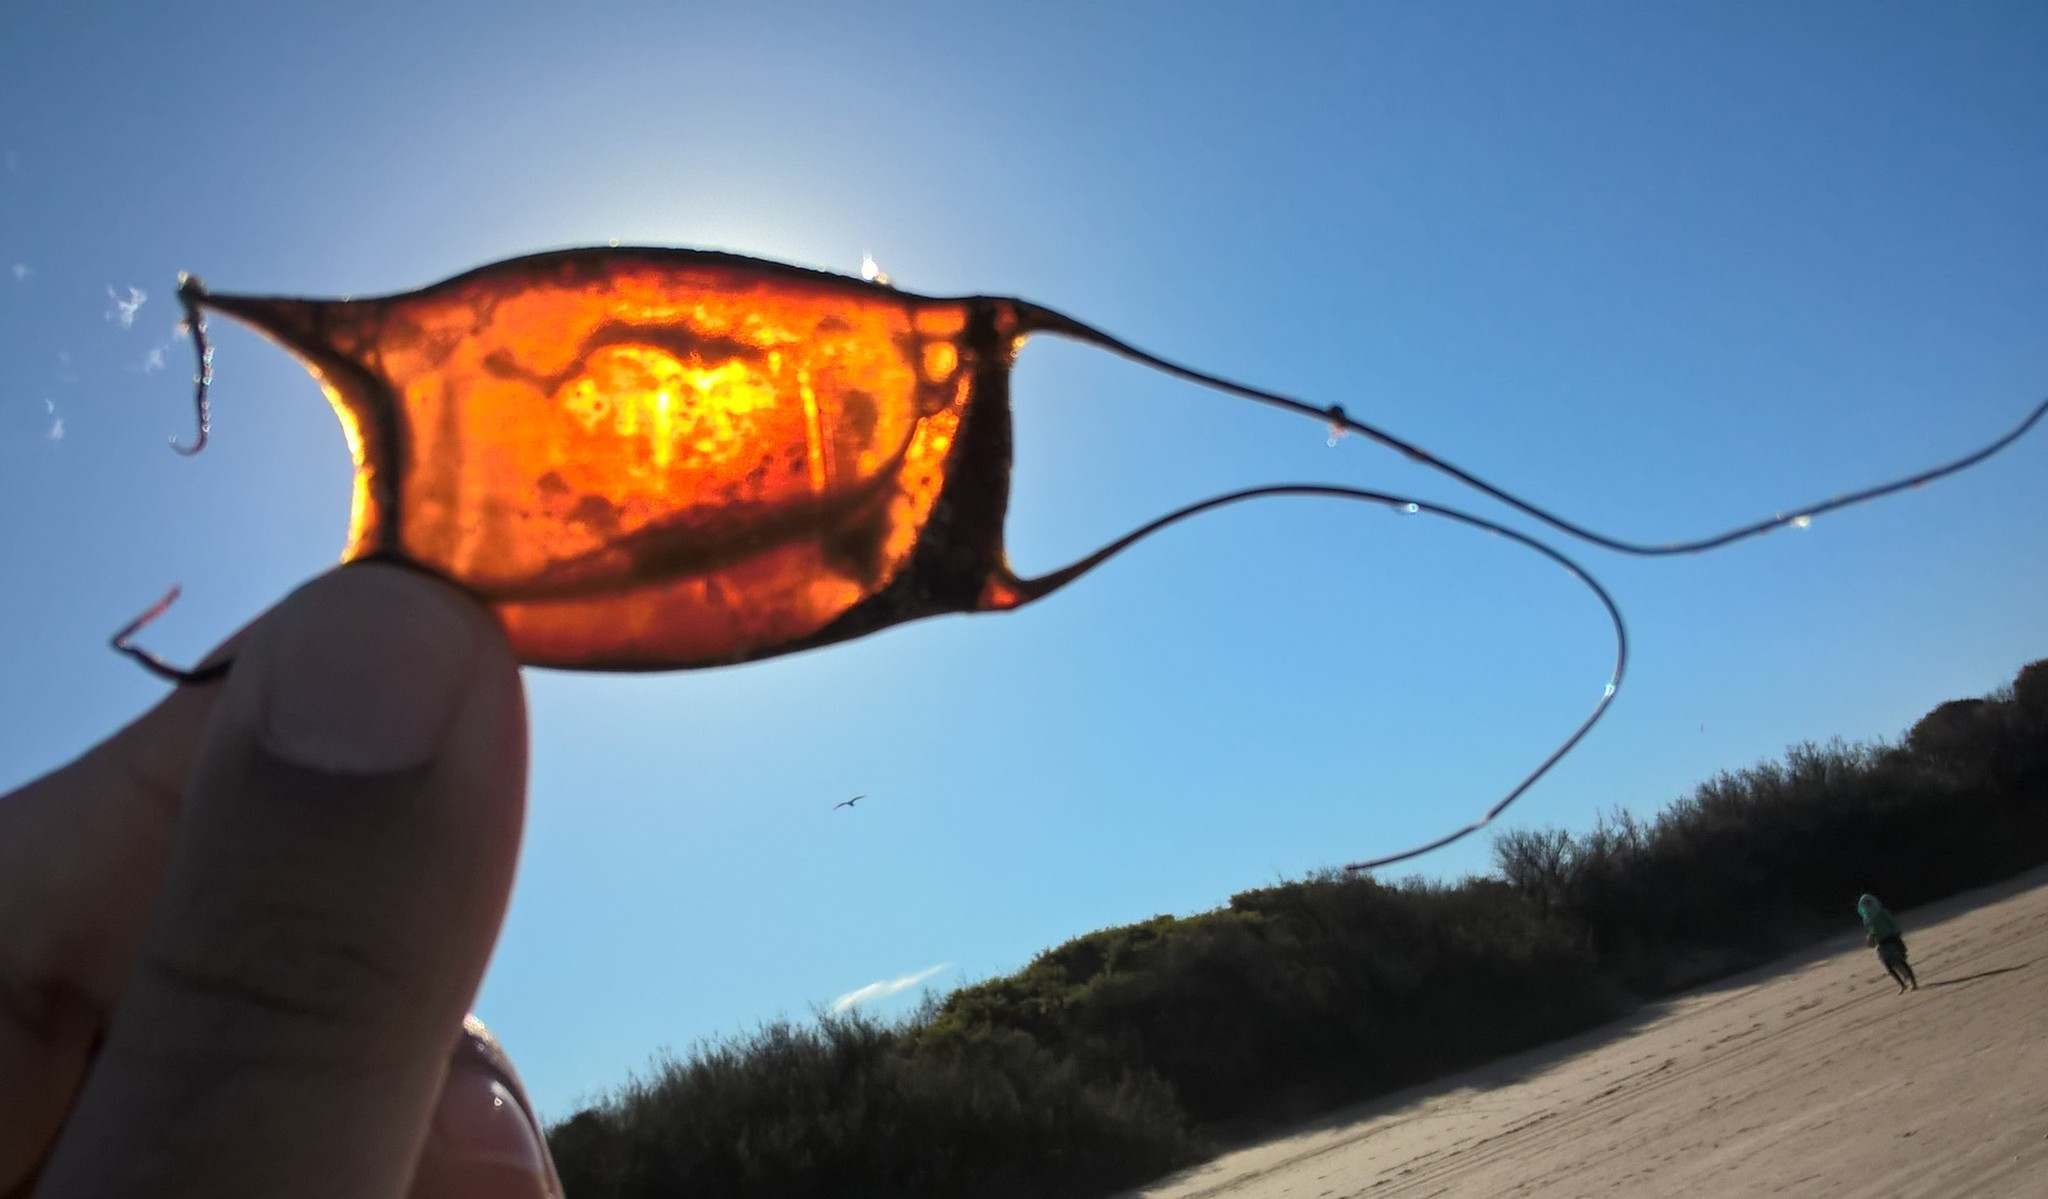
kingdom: Animalia
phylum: Chordata
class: Elasmobranchii
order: Rajiformes
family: Arhynchobatidae
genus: Sympterygia
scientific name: Sympterygia acuta
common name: Bignose fanskate
